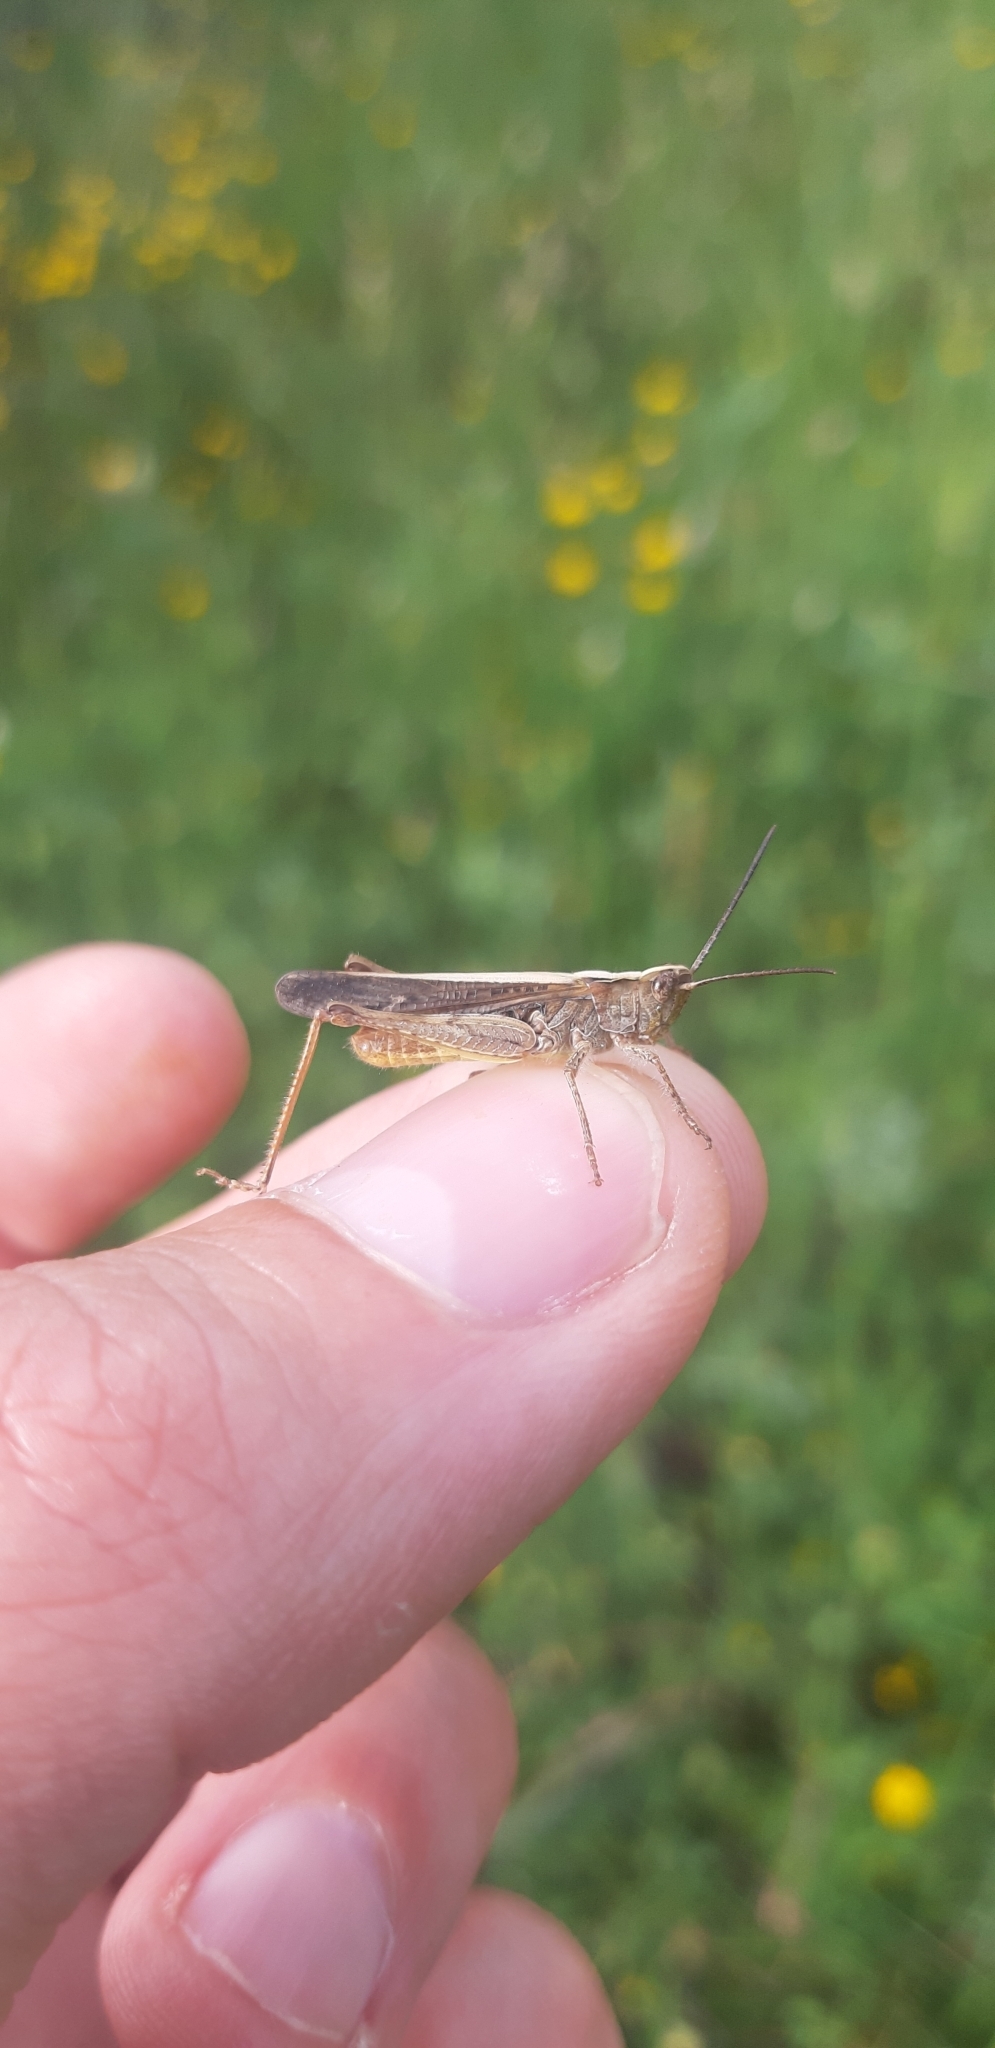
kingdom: Animalia
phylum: Arthropoda
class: Insecta
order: Orthoptera
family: Acrididae
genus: Chorthippus
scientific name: Chorthippus brunneus
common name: Field grasshopper
